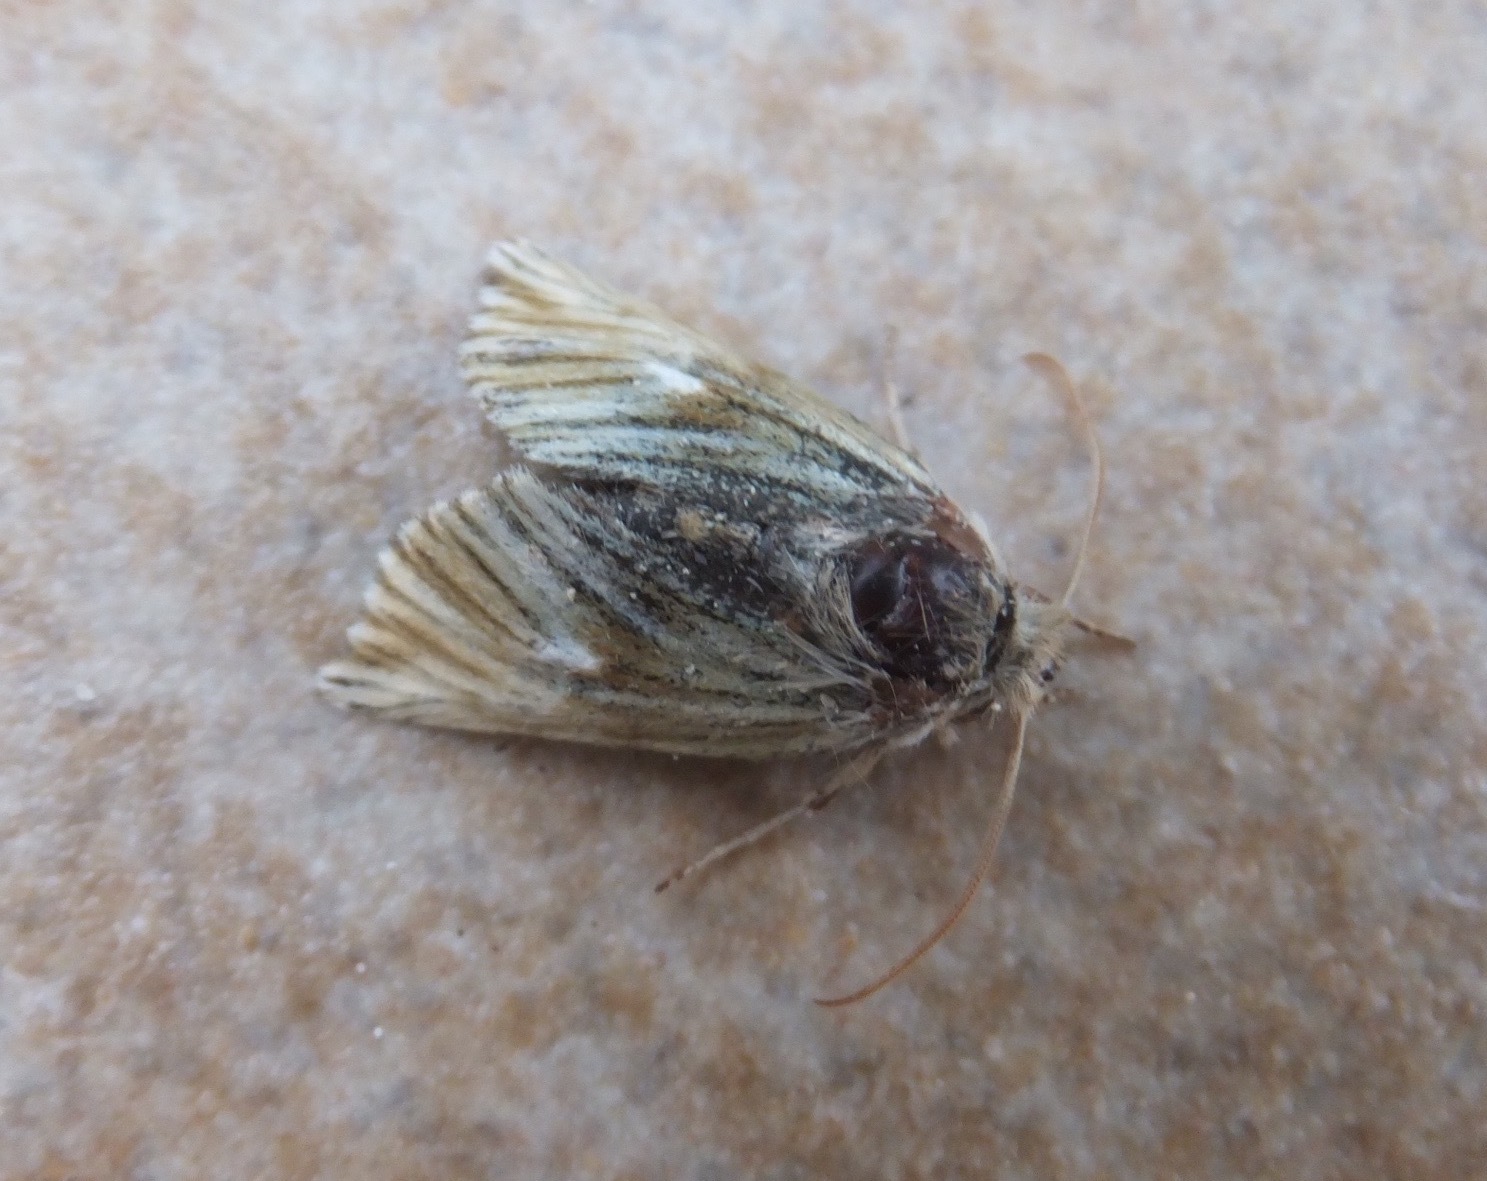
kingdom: Animalia
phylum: Arthropoda
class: Insecta
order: Lepidoptera
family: Erebidae
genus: Teinoptera
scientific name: Teinoptera olivina
